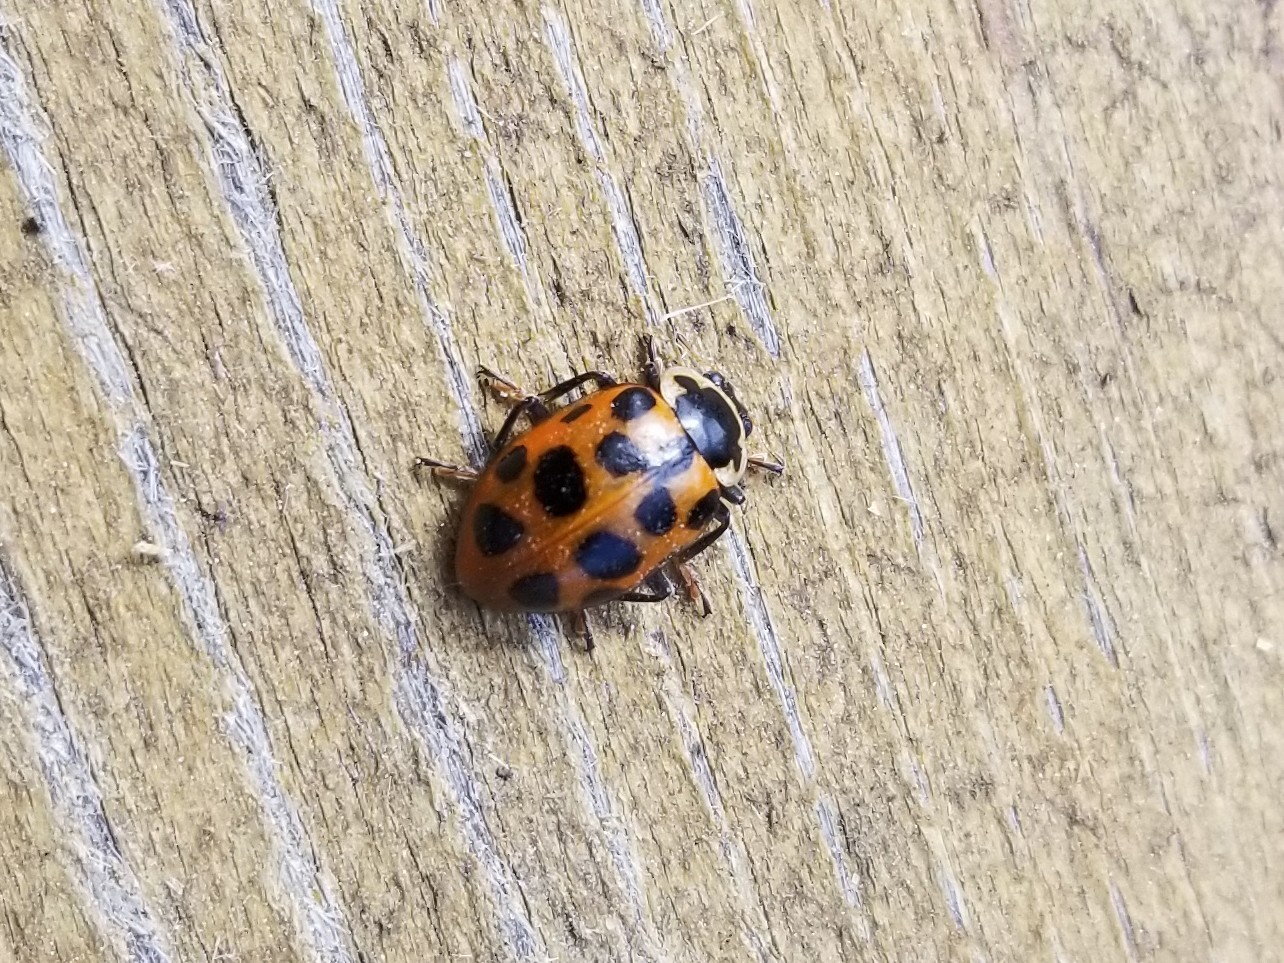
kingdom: Animalia
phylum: Arthropoda
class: Insecta
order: Coleoptera
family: Coccinellidae
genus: Hippodamia
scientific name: Hippodamia tredecimpunctata
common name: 13-spot ladybird
